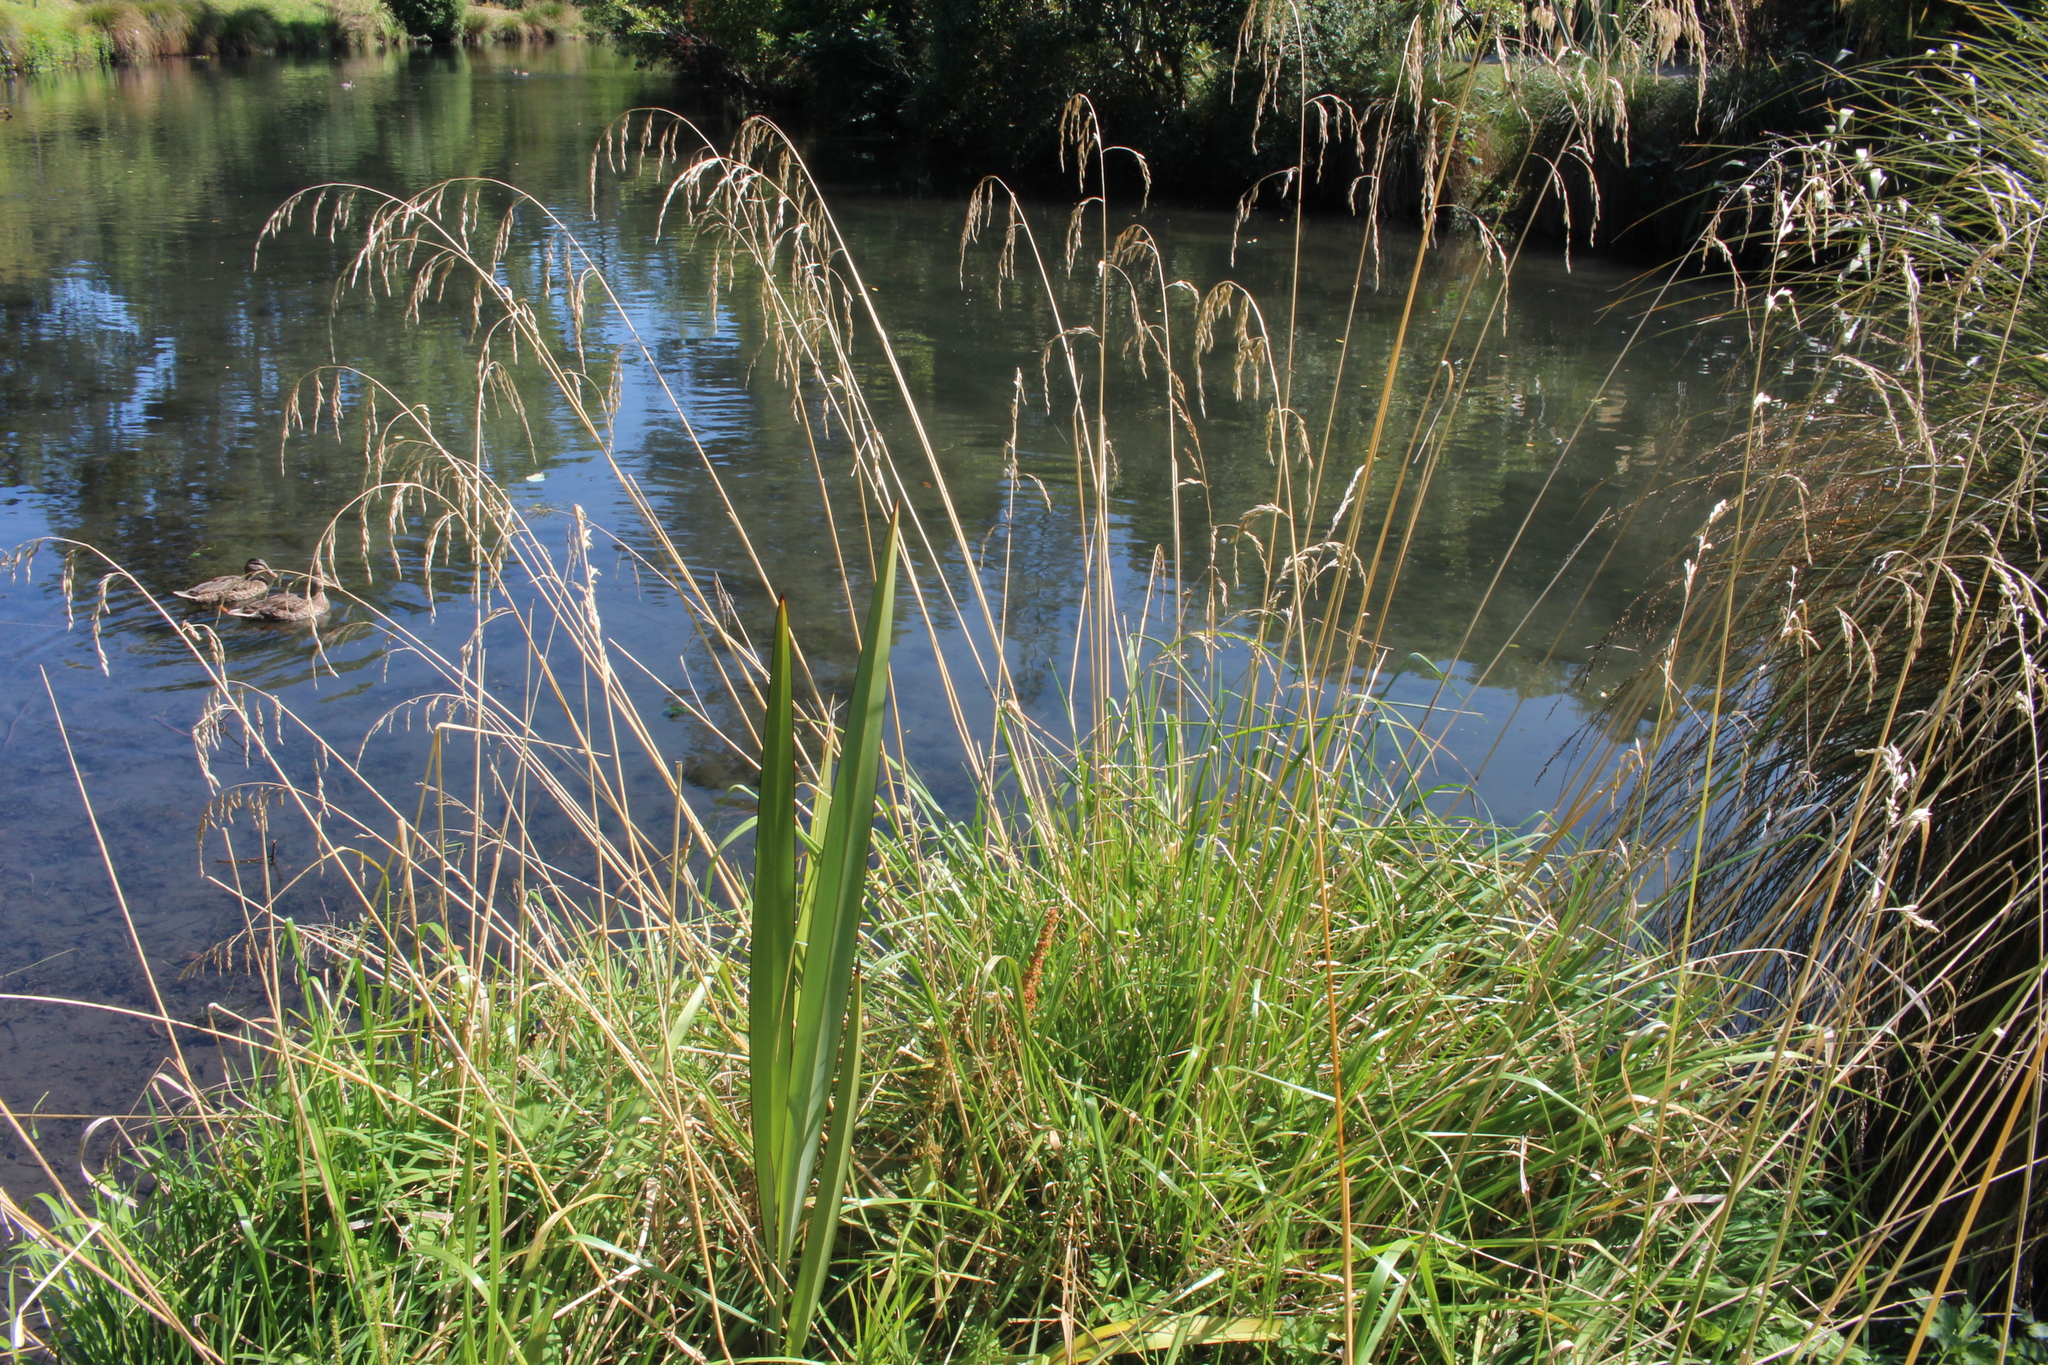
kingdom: Plantae
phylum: Tracheophyta
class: Liliopsida
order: Poales
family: Poaceae
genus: Lolium
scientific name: Lolium arundinaceum
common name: Reed fescue
